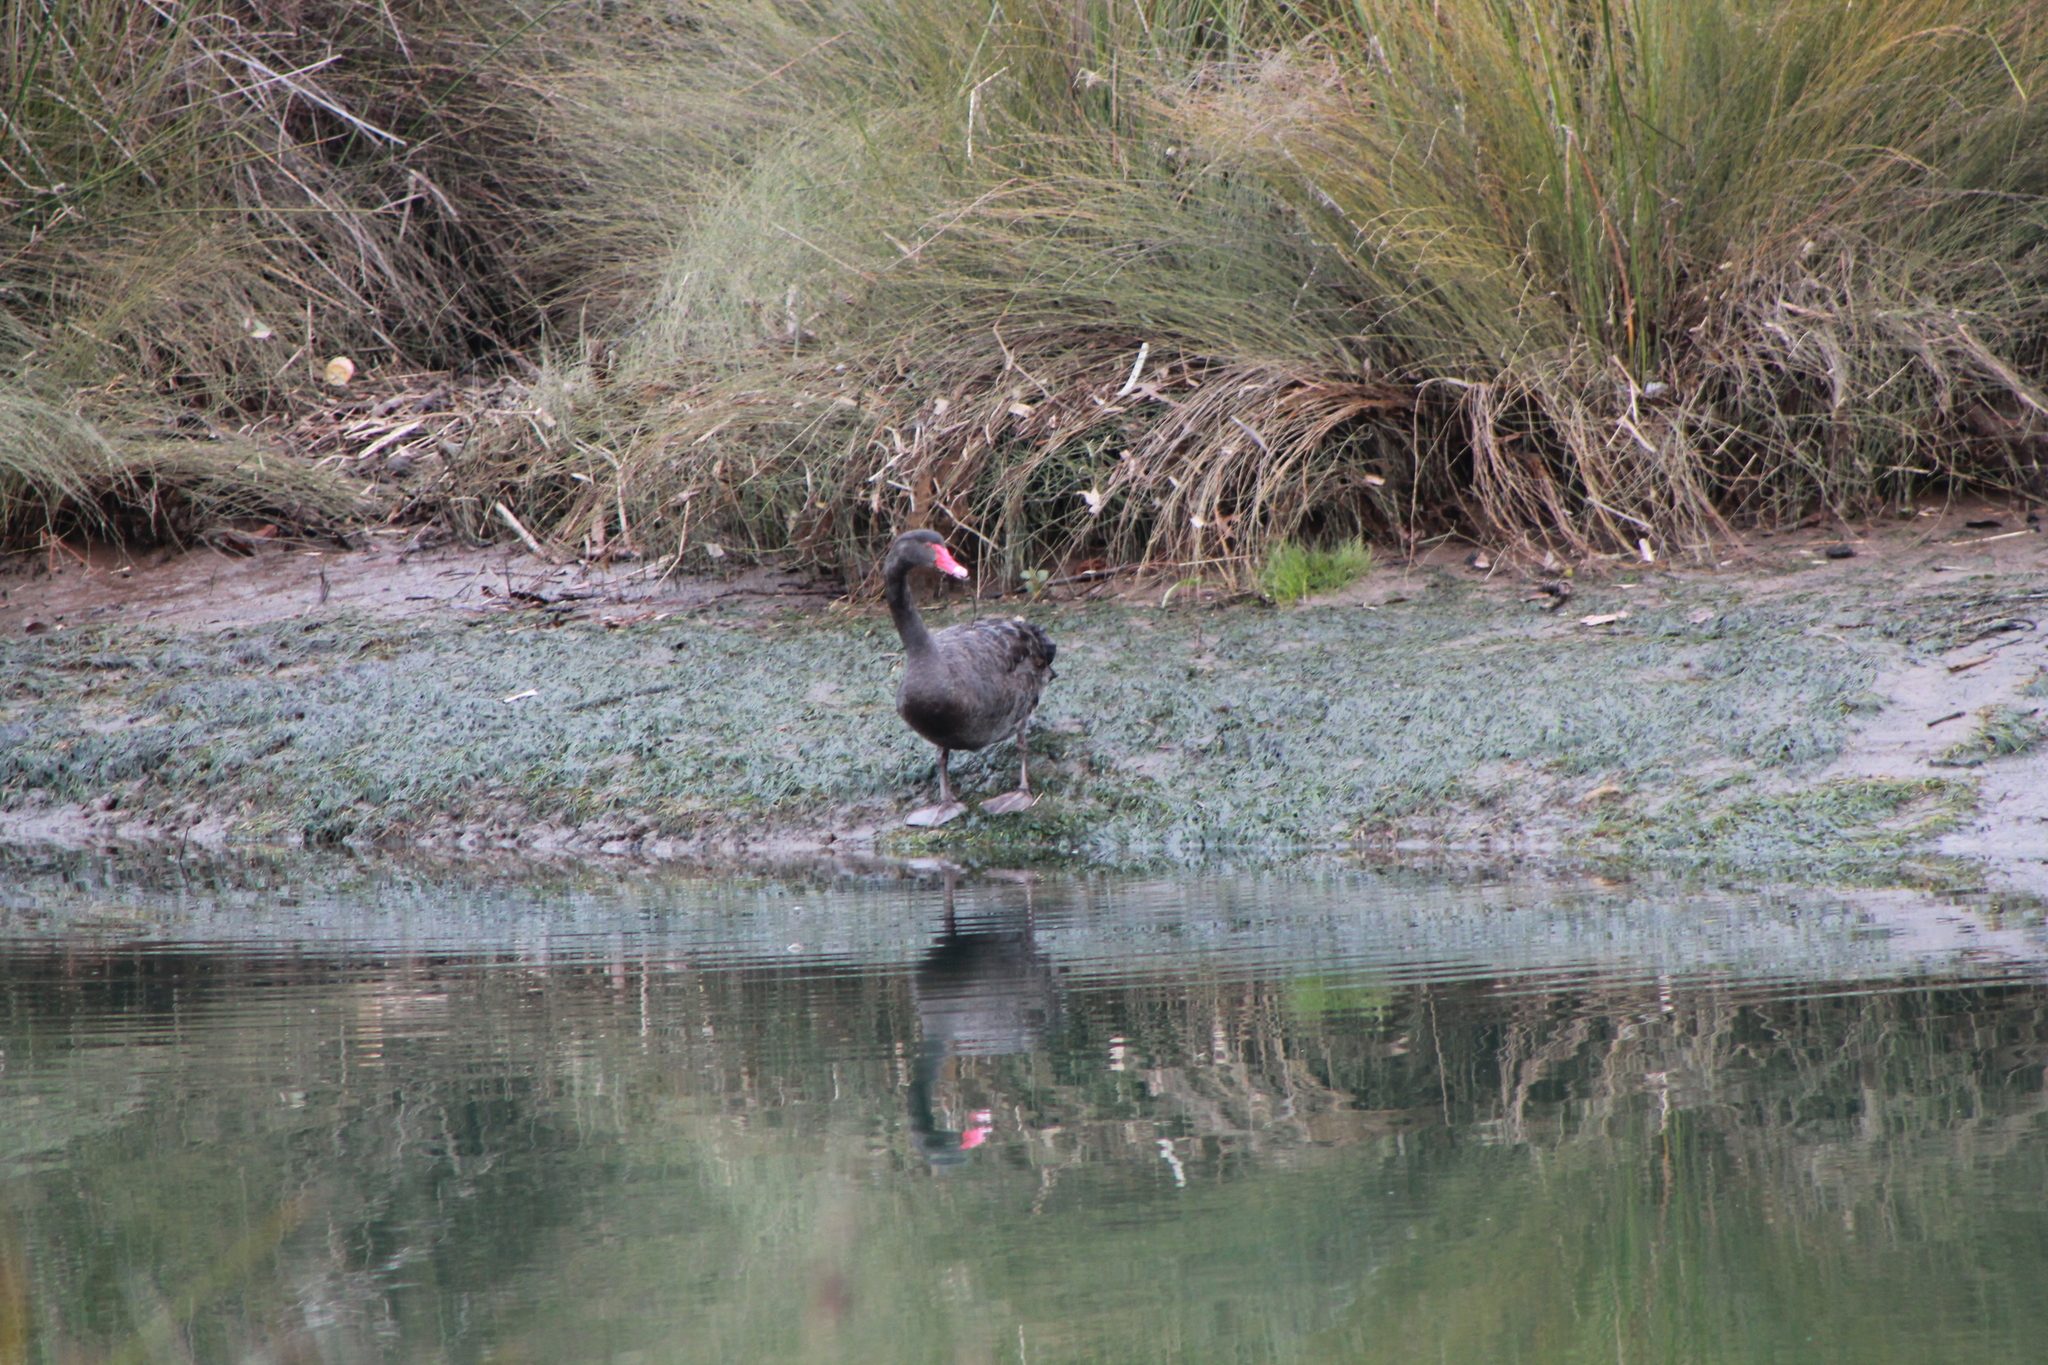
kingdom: Animalia
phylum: Chordata
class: Aves
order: Anseriformes
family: Anatidae
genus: Cygnus
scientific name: Cygnus atratus
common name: Black swan
